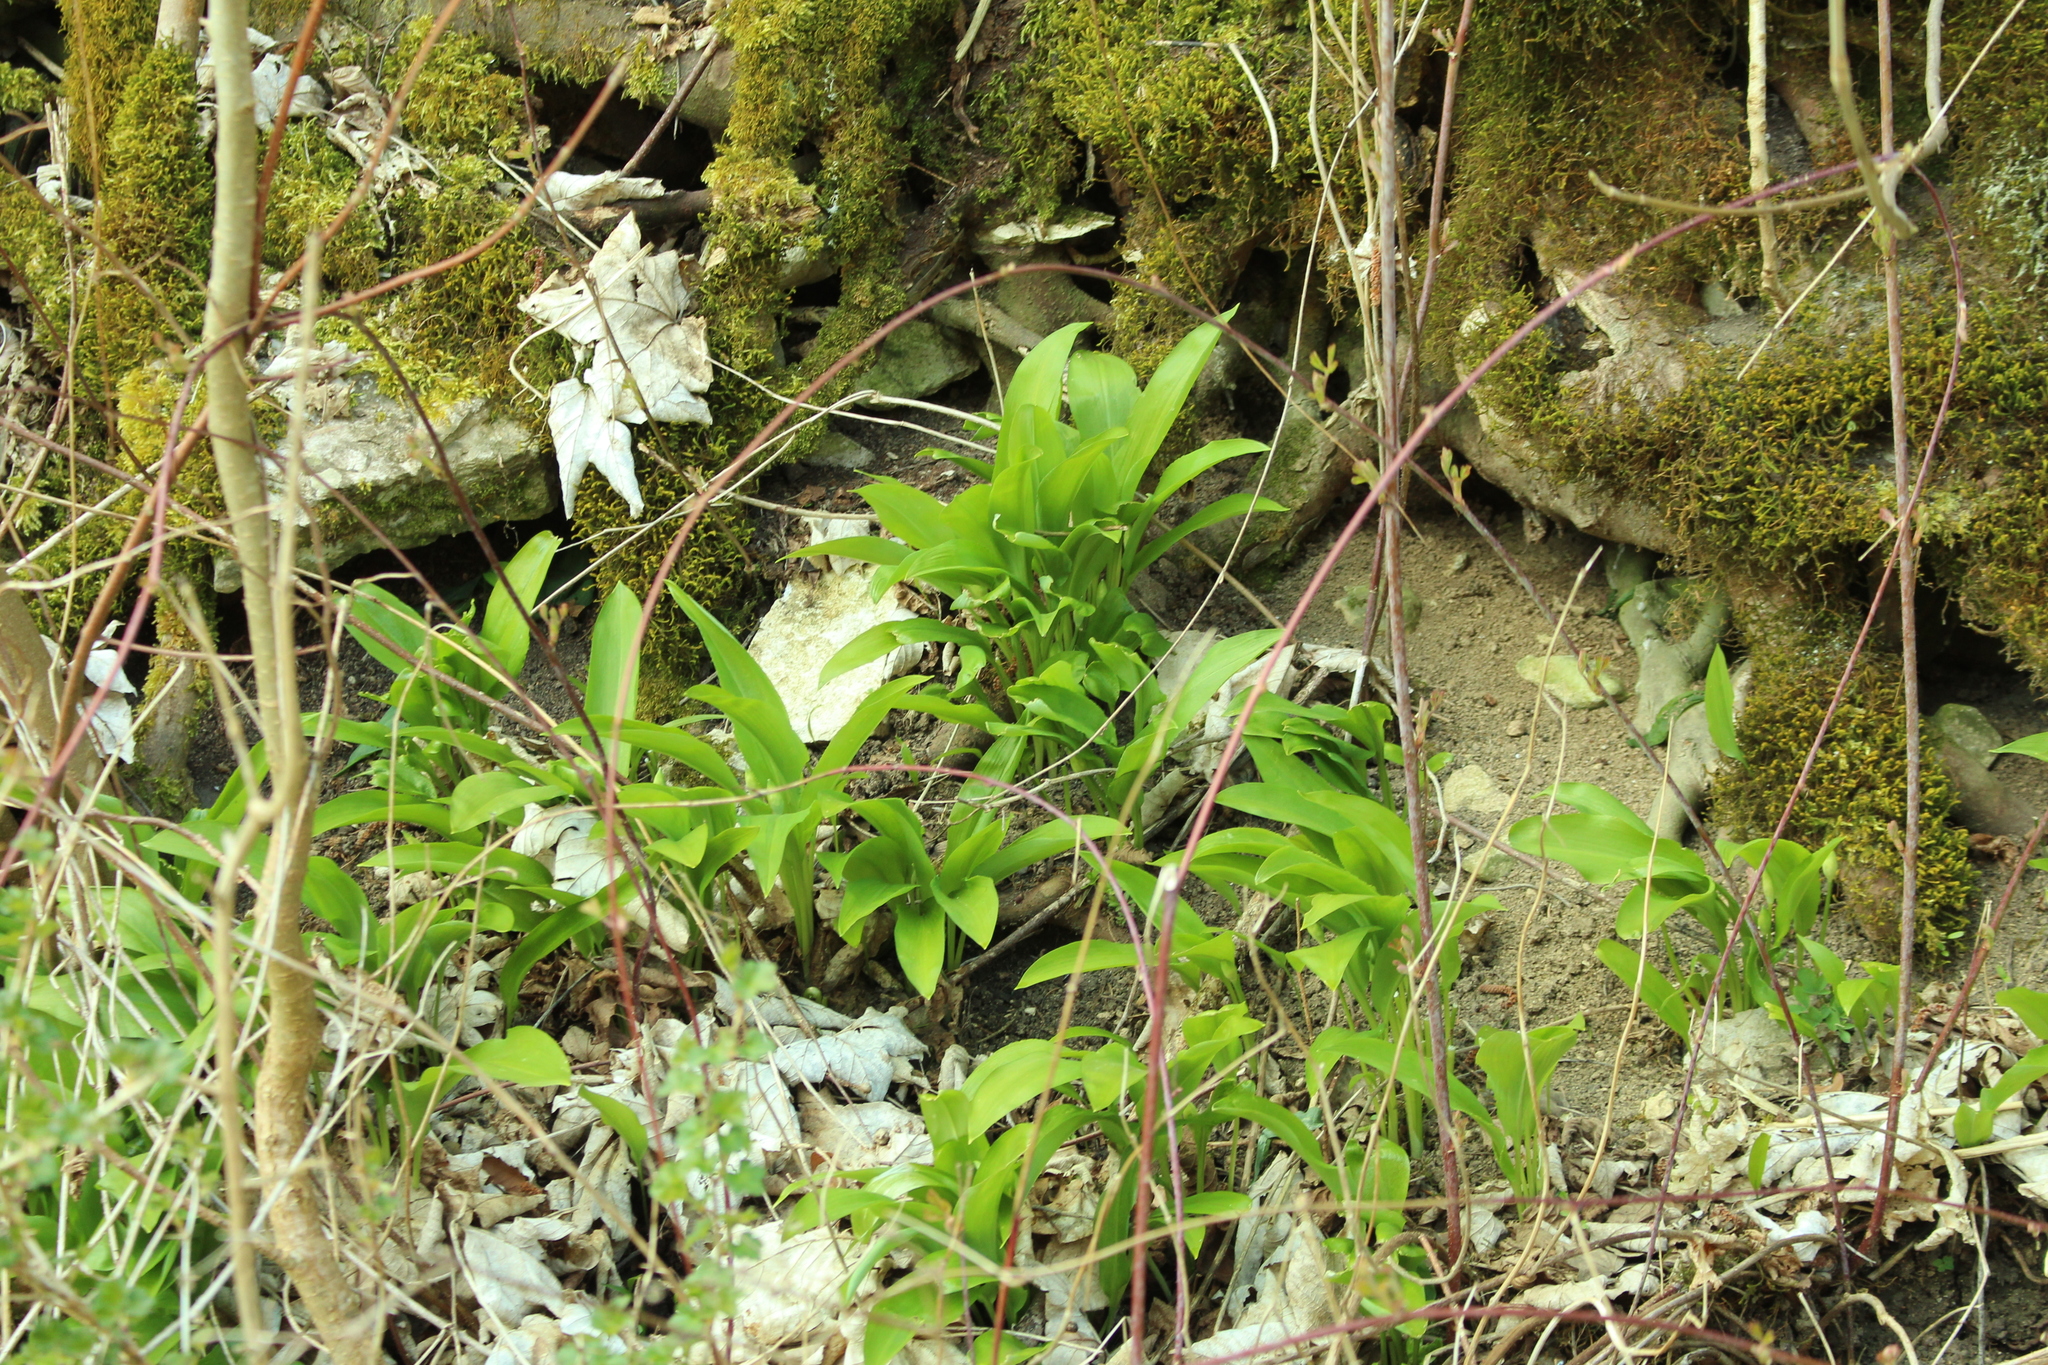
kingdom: Plantae
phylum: Tracheophyta
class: Liliopsida
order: Asparagales
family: Amaryllidaceae
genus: Allium
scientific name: Allium ursinum
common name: Ramsons
